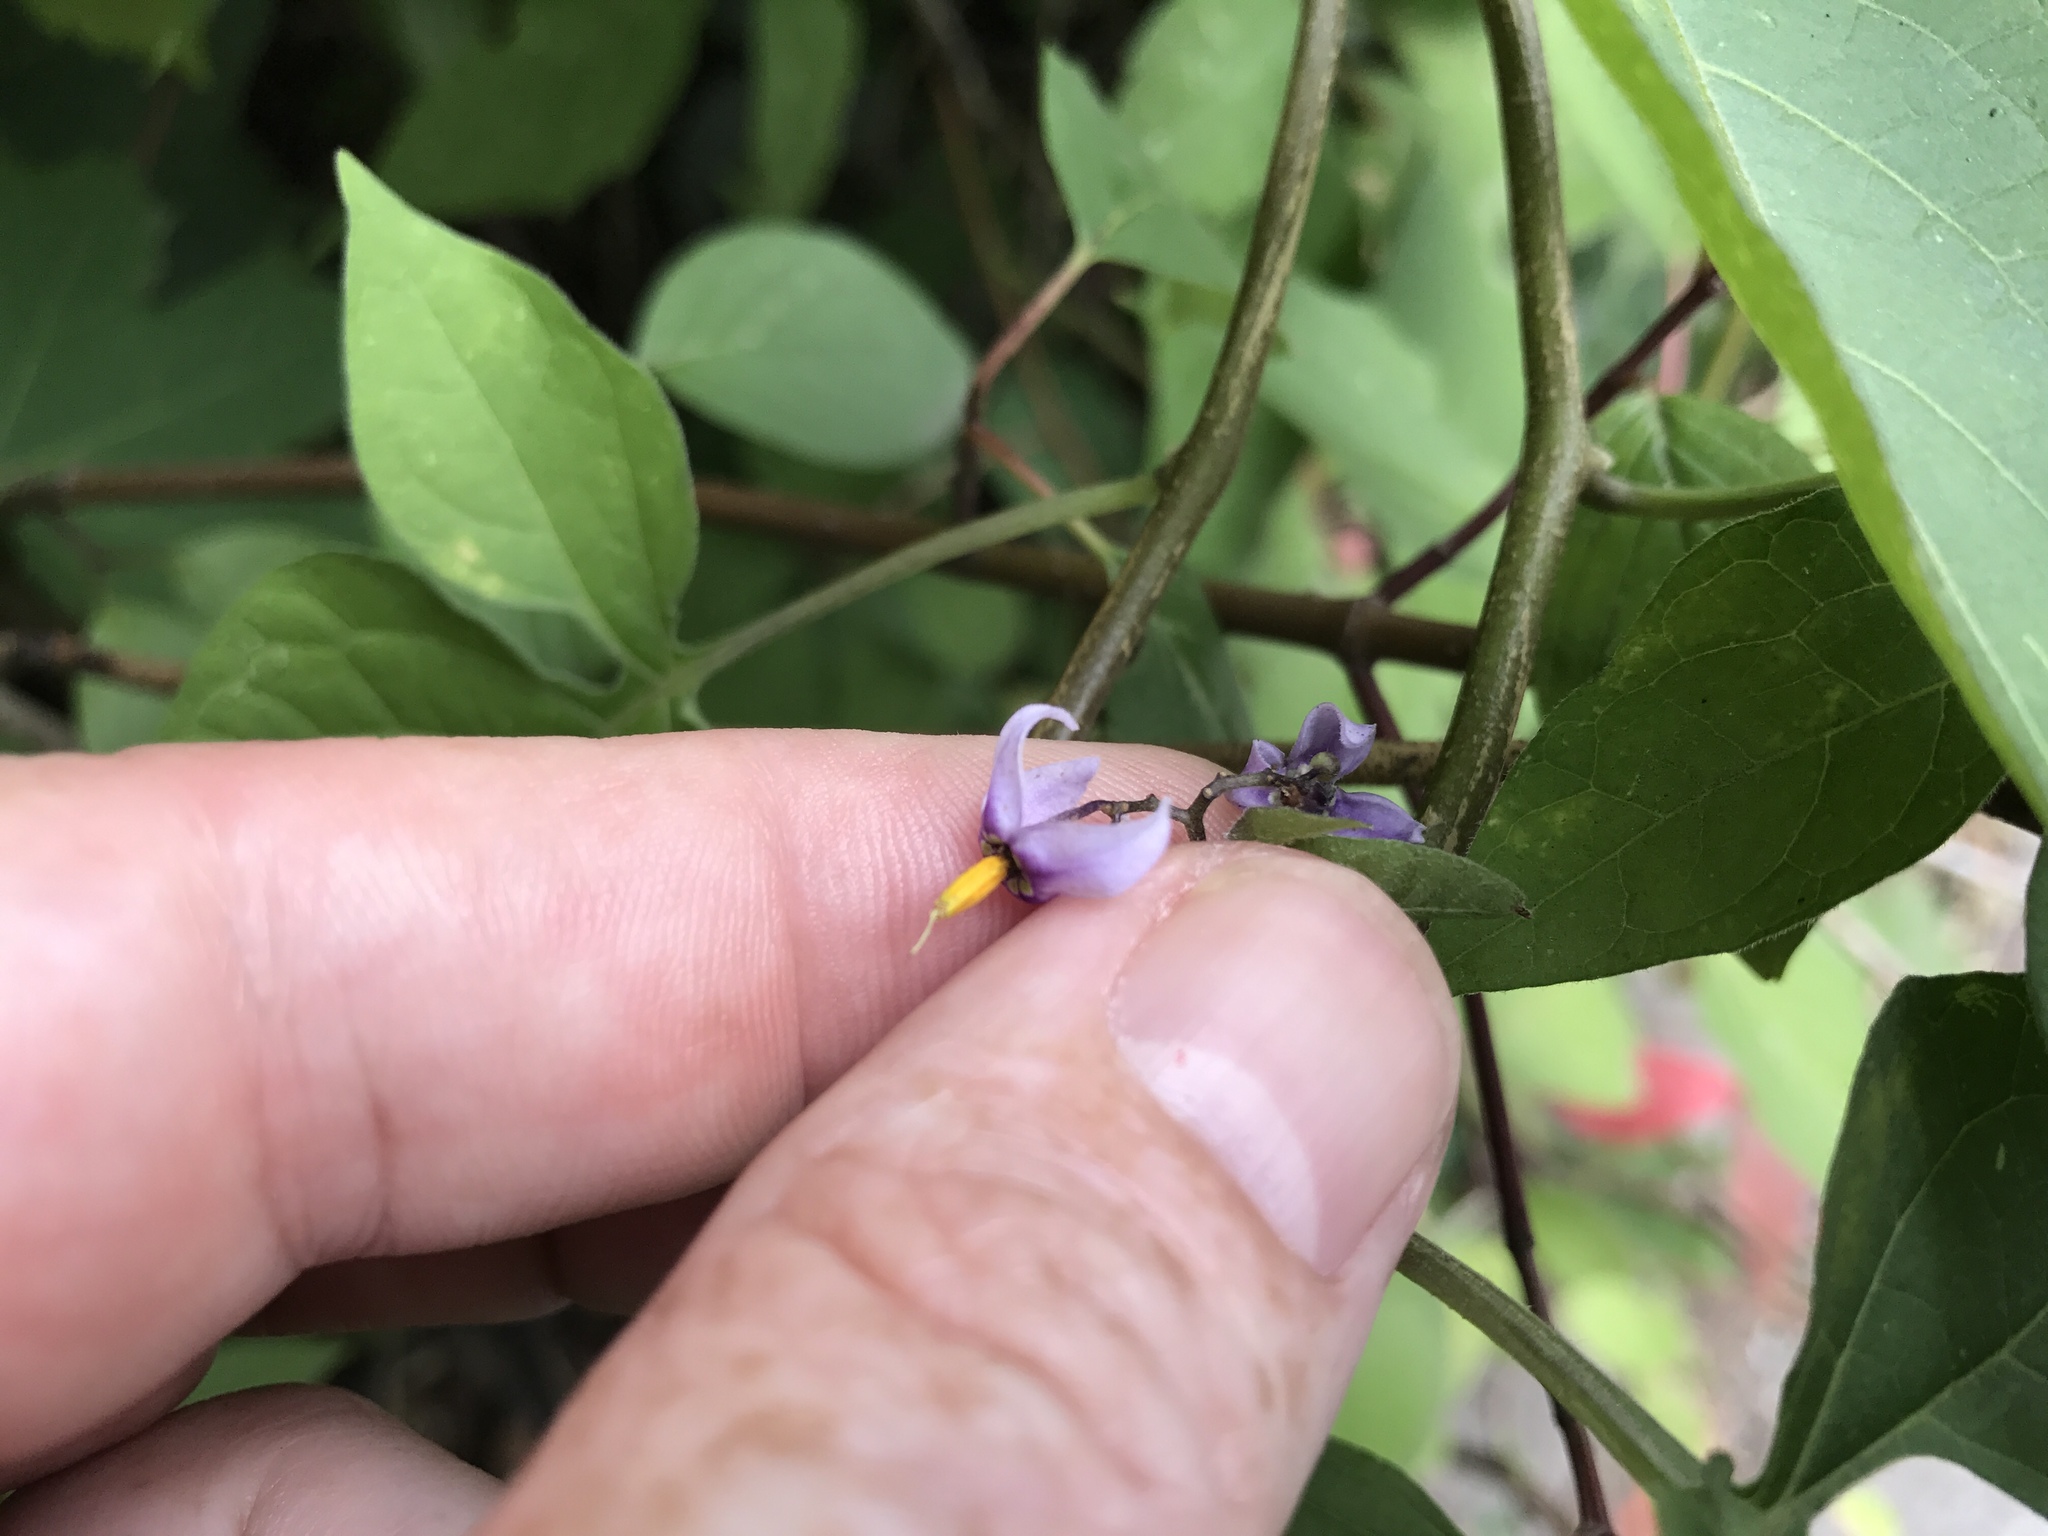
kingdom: Plantae
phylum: Tracheophyta
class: Magnoliopsida
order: Solanales
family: Solanaceae
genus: Solanum
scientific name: Solanum dulcamara
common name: Climbing nightshade
